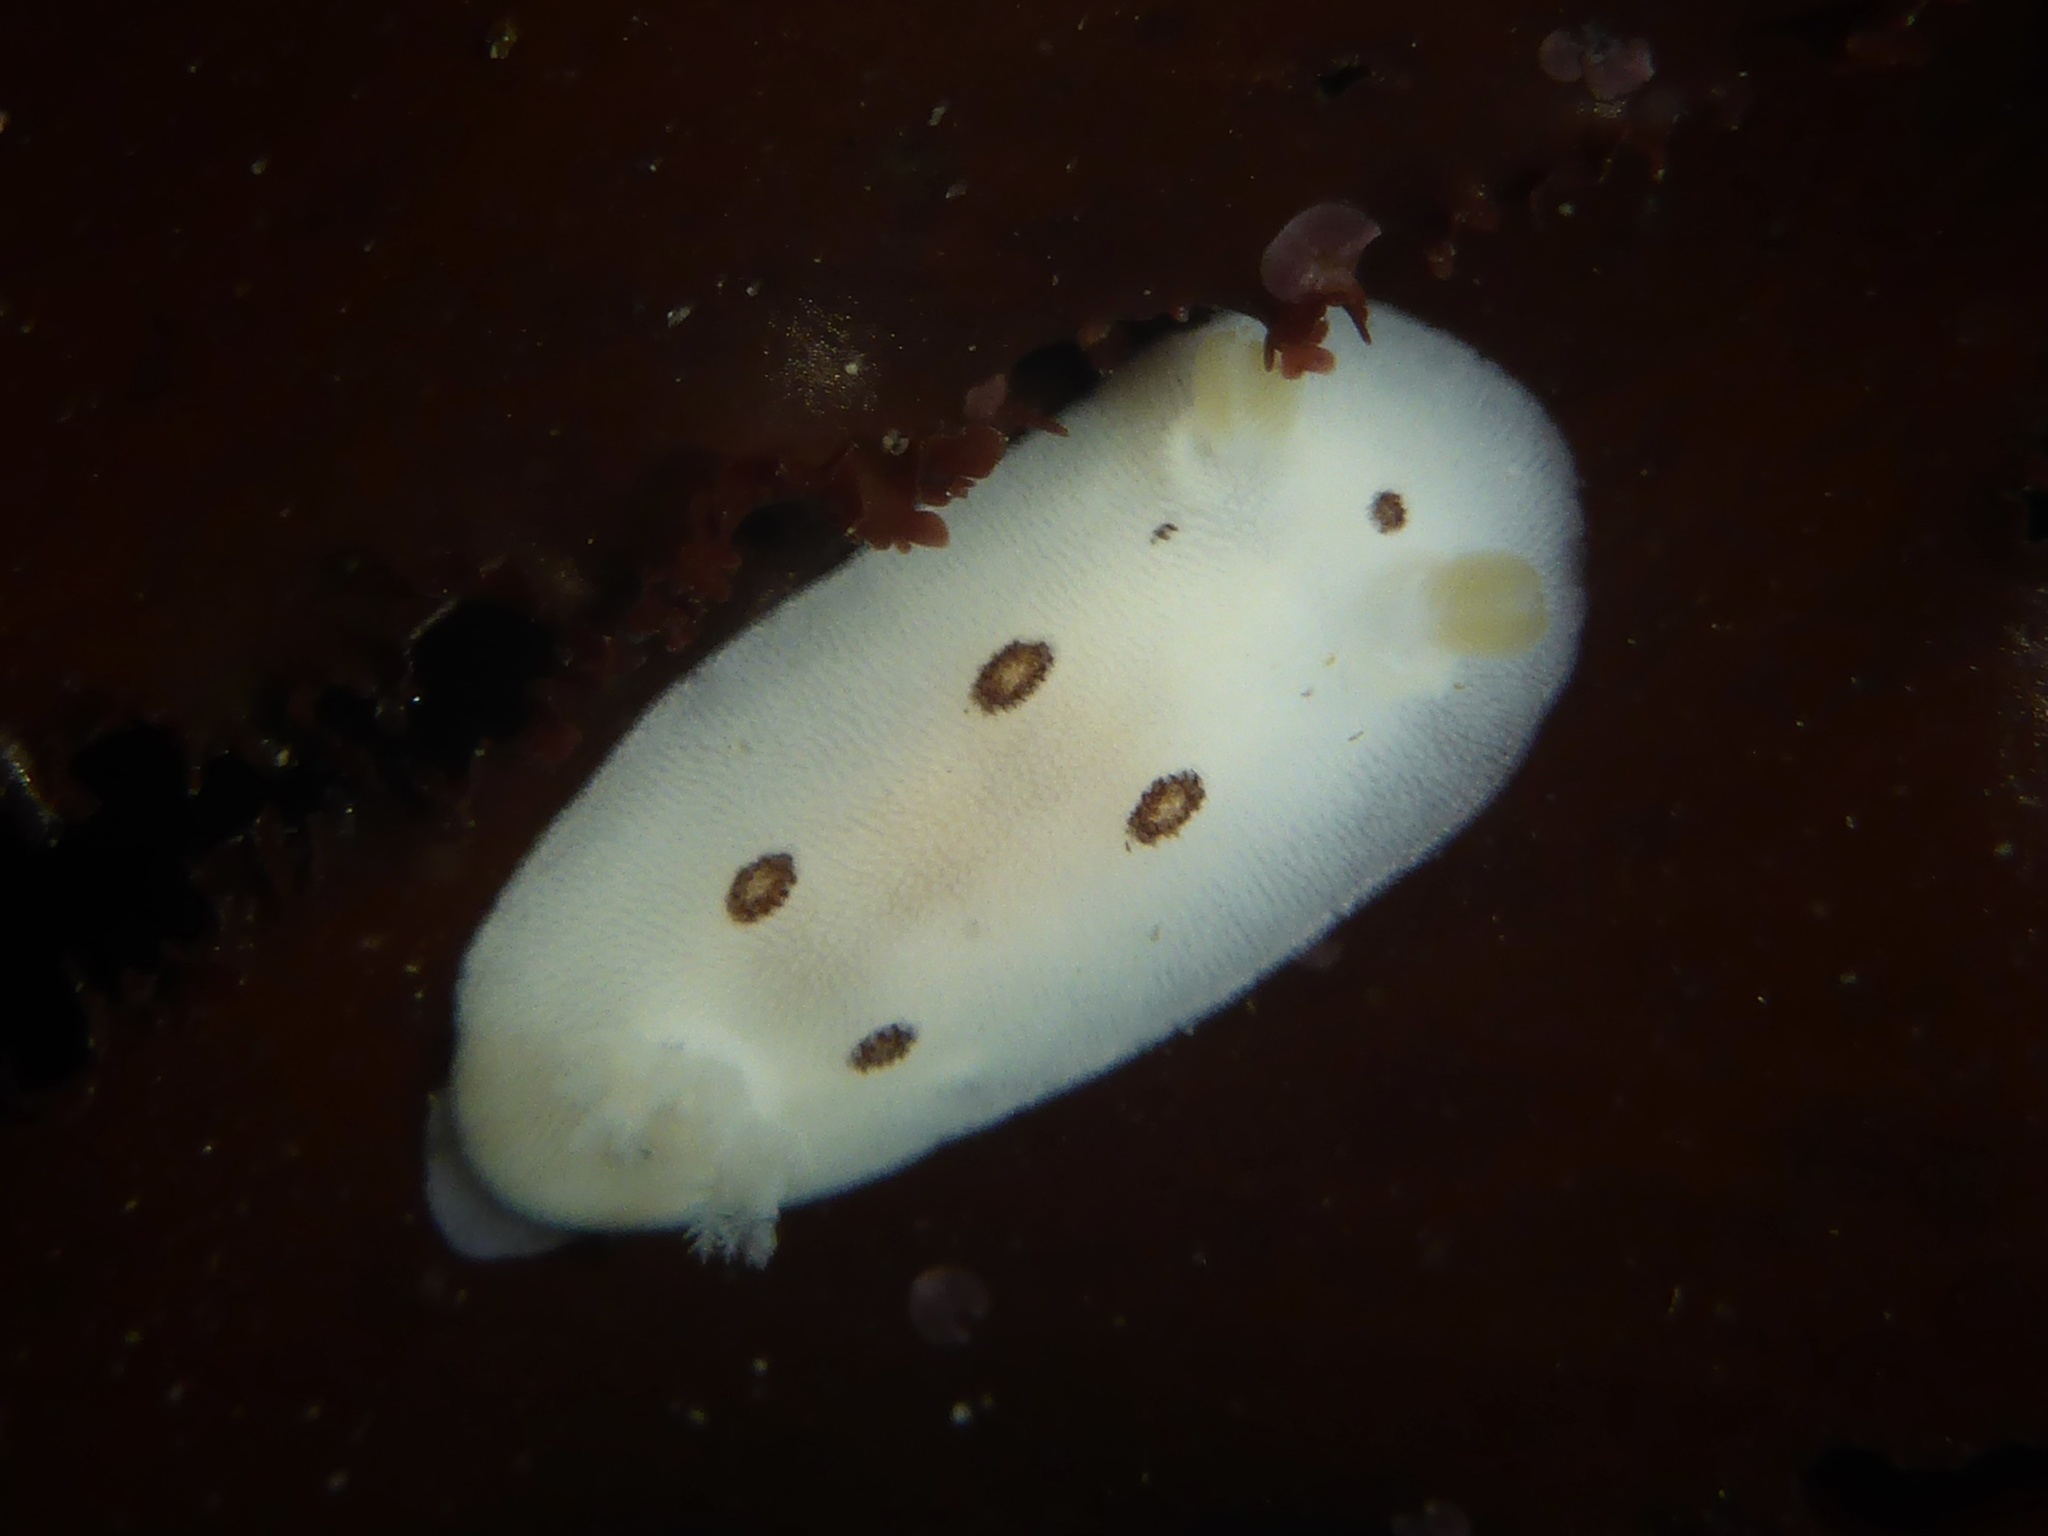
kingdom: Animalia
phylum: Mollusca
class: Gastropoda
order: Nudibranchia
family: Discodorididae
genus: Diaulula
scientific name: Diaulula sandiegensis
